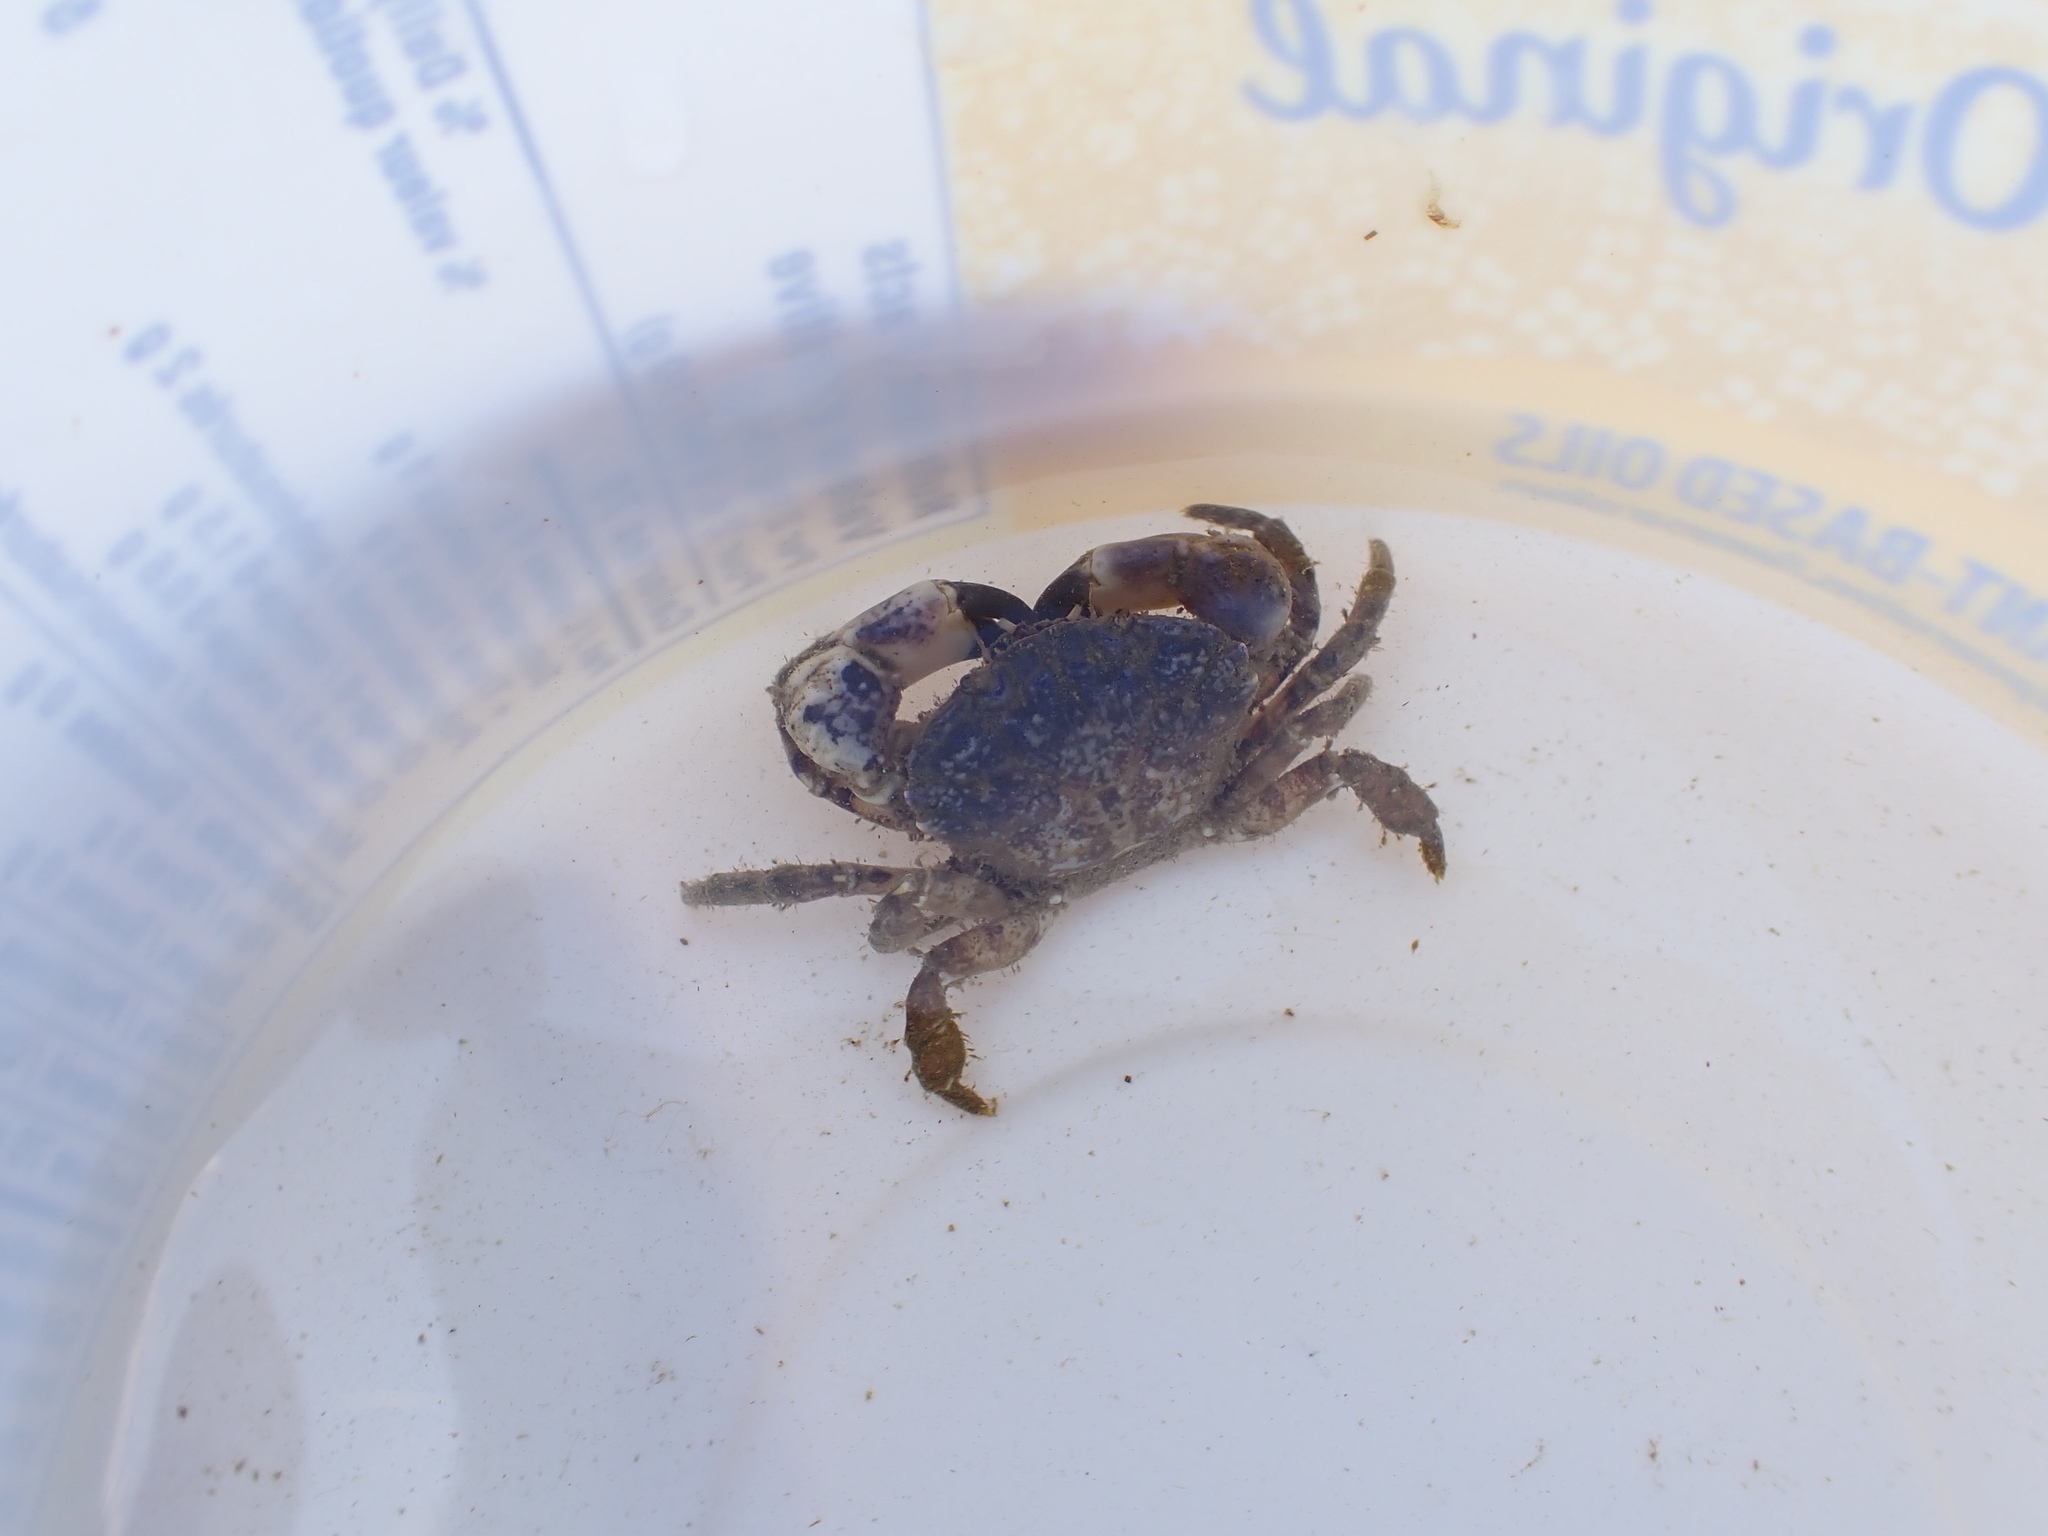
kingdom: Animalia
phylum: Arthropoda
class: Malacostraca
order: Decapoda
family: Panopeidae
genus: Lophopanopeus
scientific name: Lophopanopeus bellus
